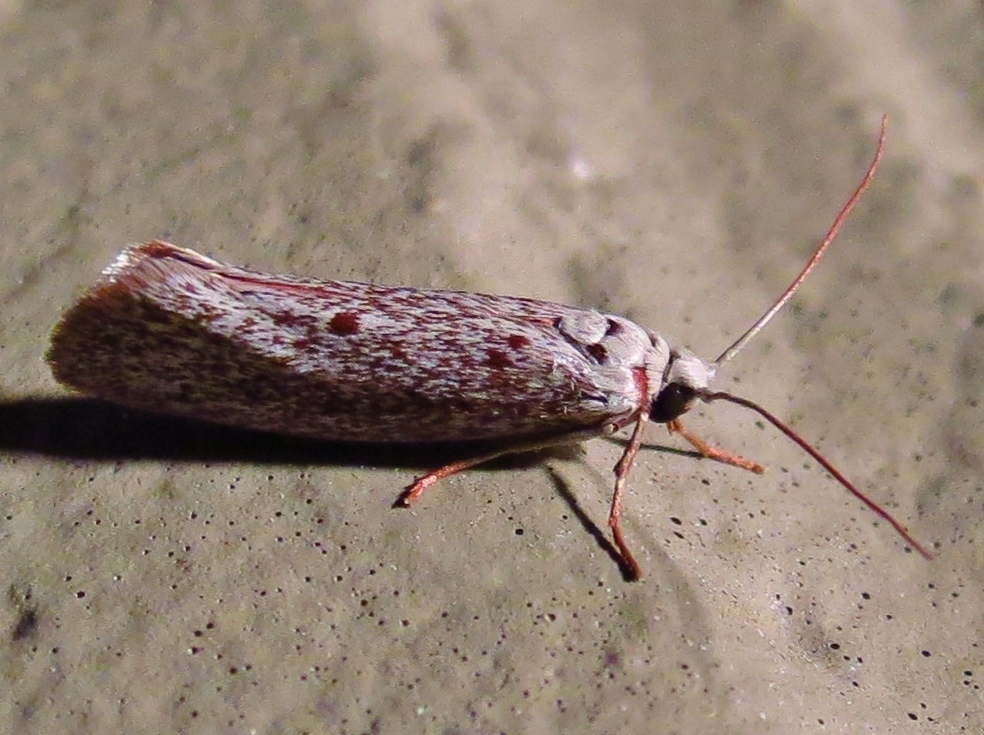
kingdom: Animalia
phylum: Arthropoda
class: Insecta
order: Lepidoptera
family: Lacturidae
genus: Lactura
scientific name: Lactura
